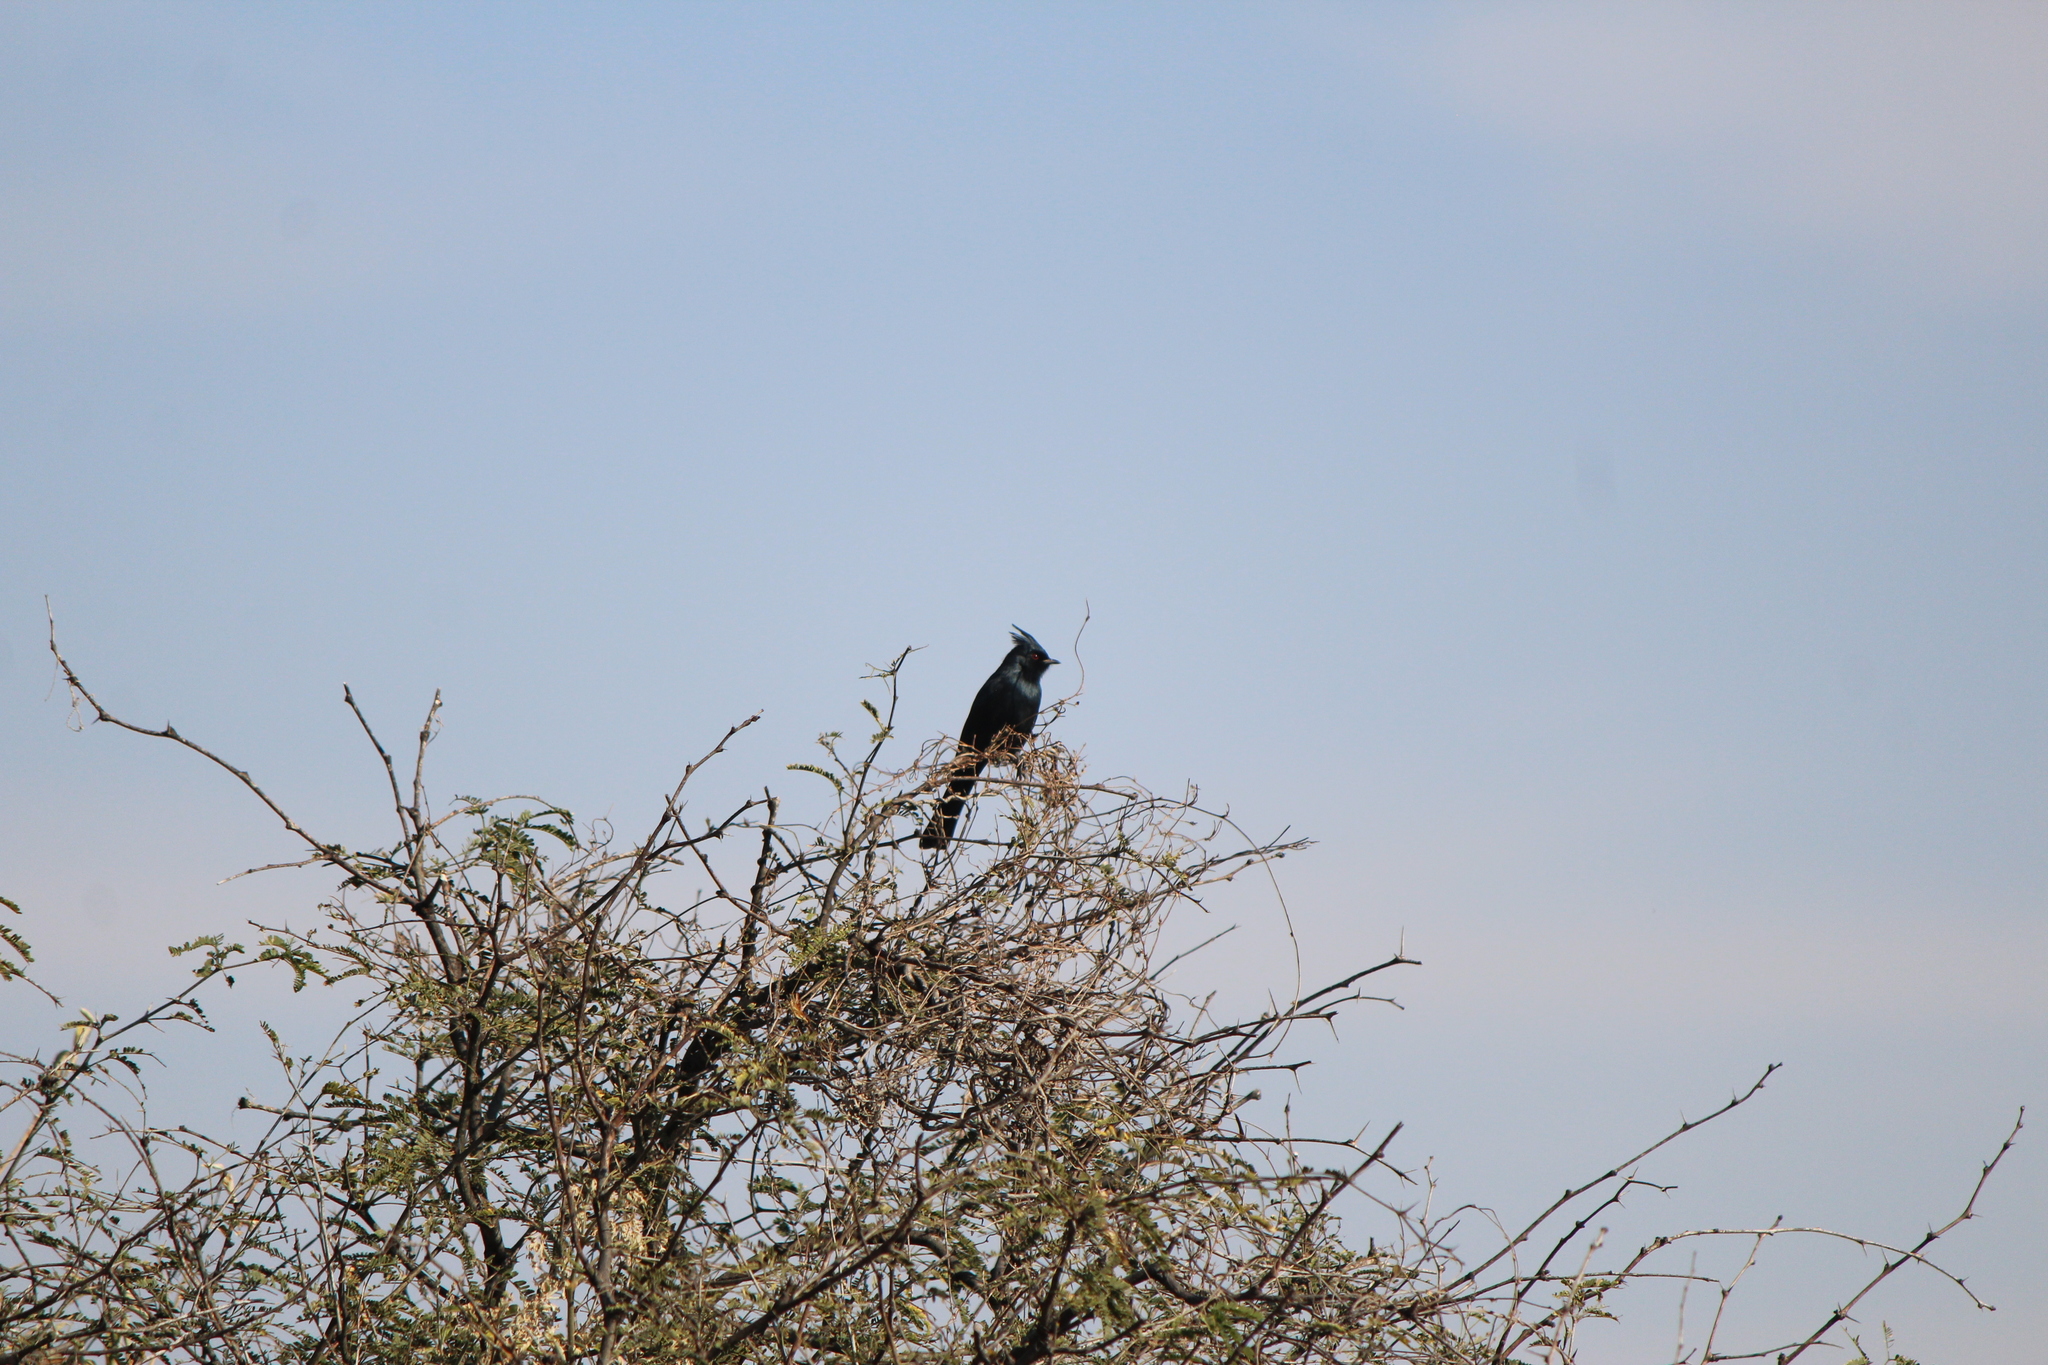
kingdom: Animalia
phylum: Chordata
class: Aves
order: Passeriformes
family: Ptilogonatidae
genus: Phainopepla
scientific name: Phainopepla nitens
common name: Phainopepla
